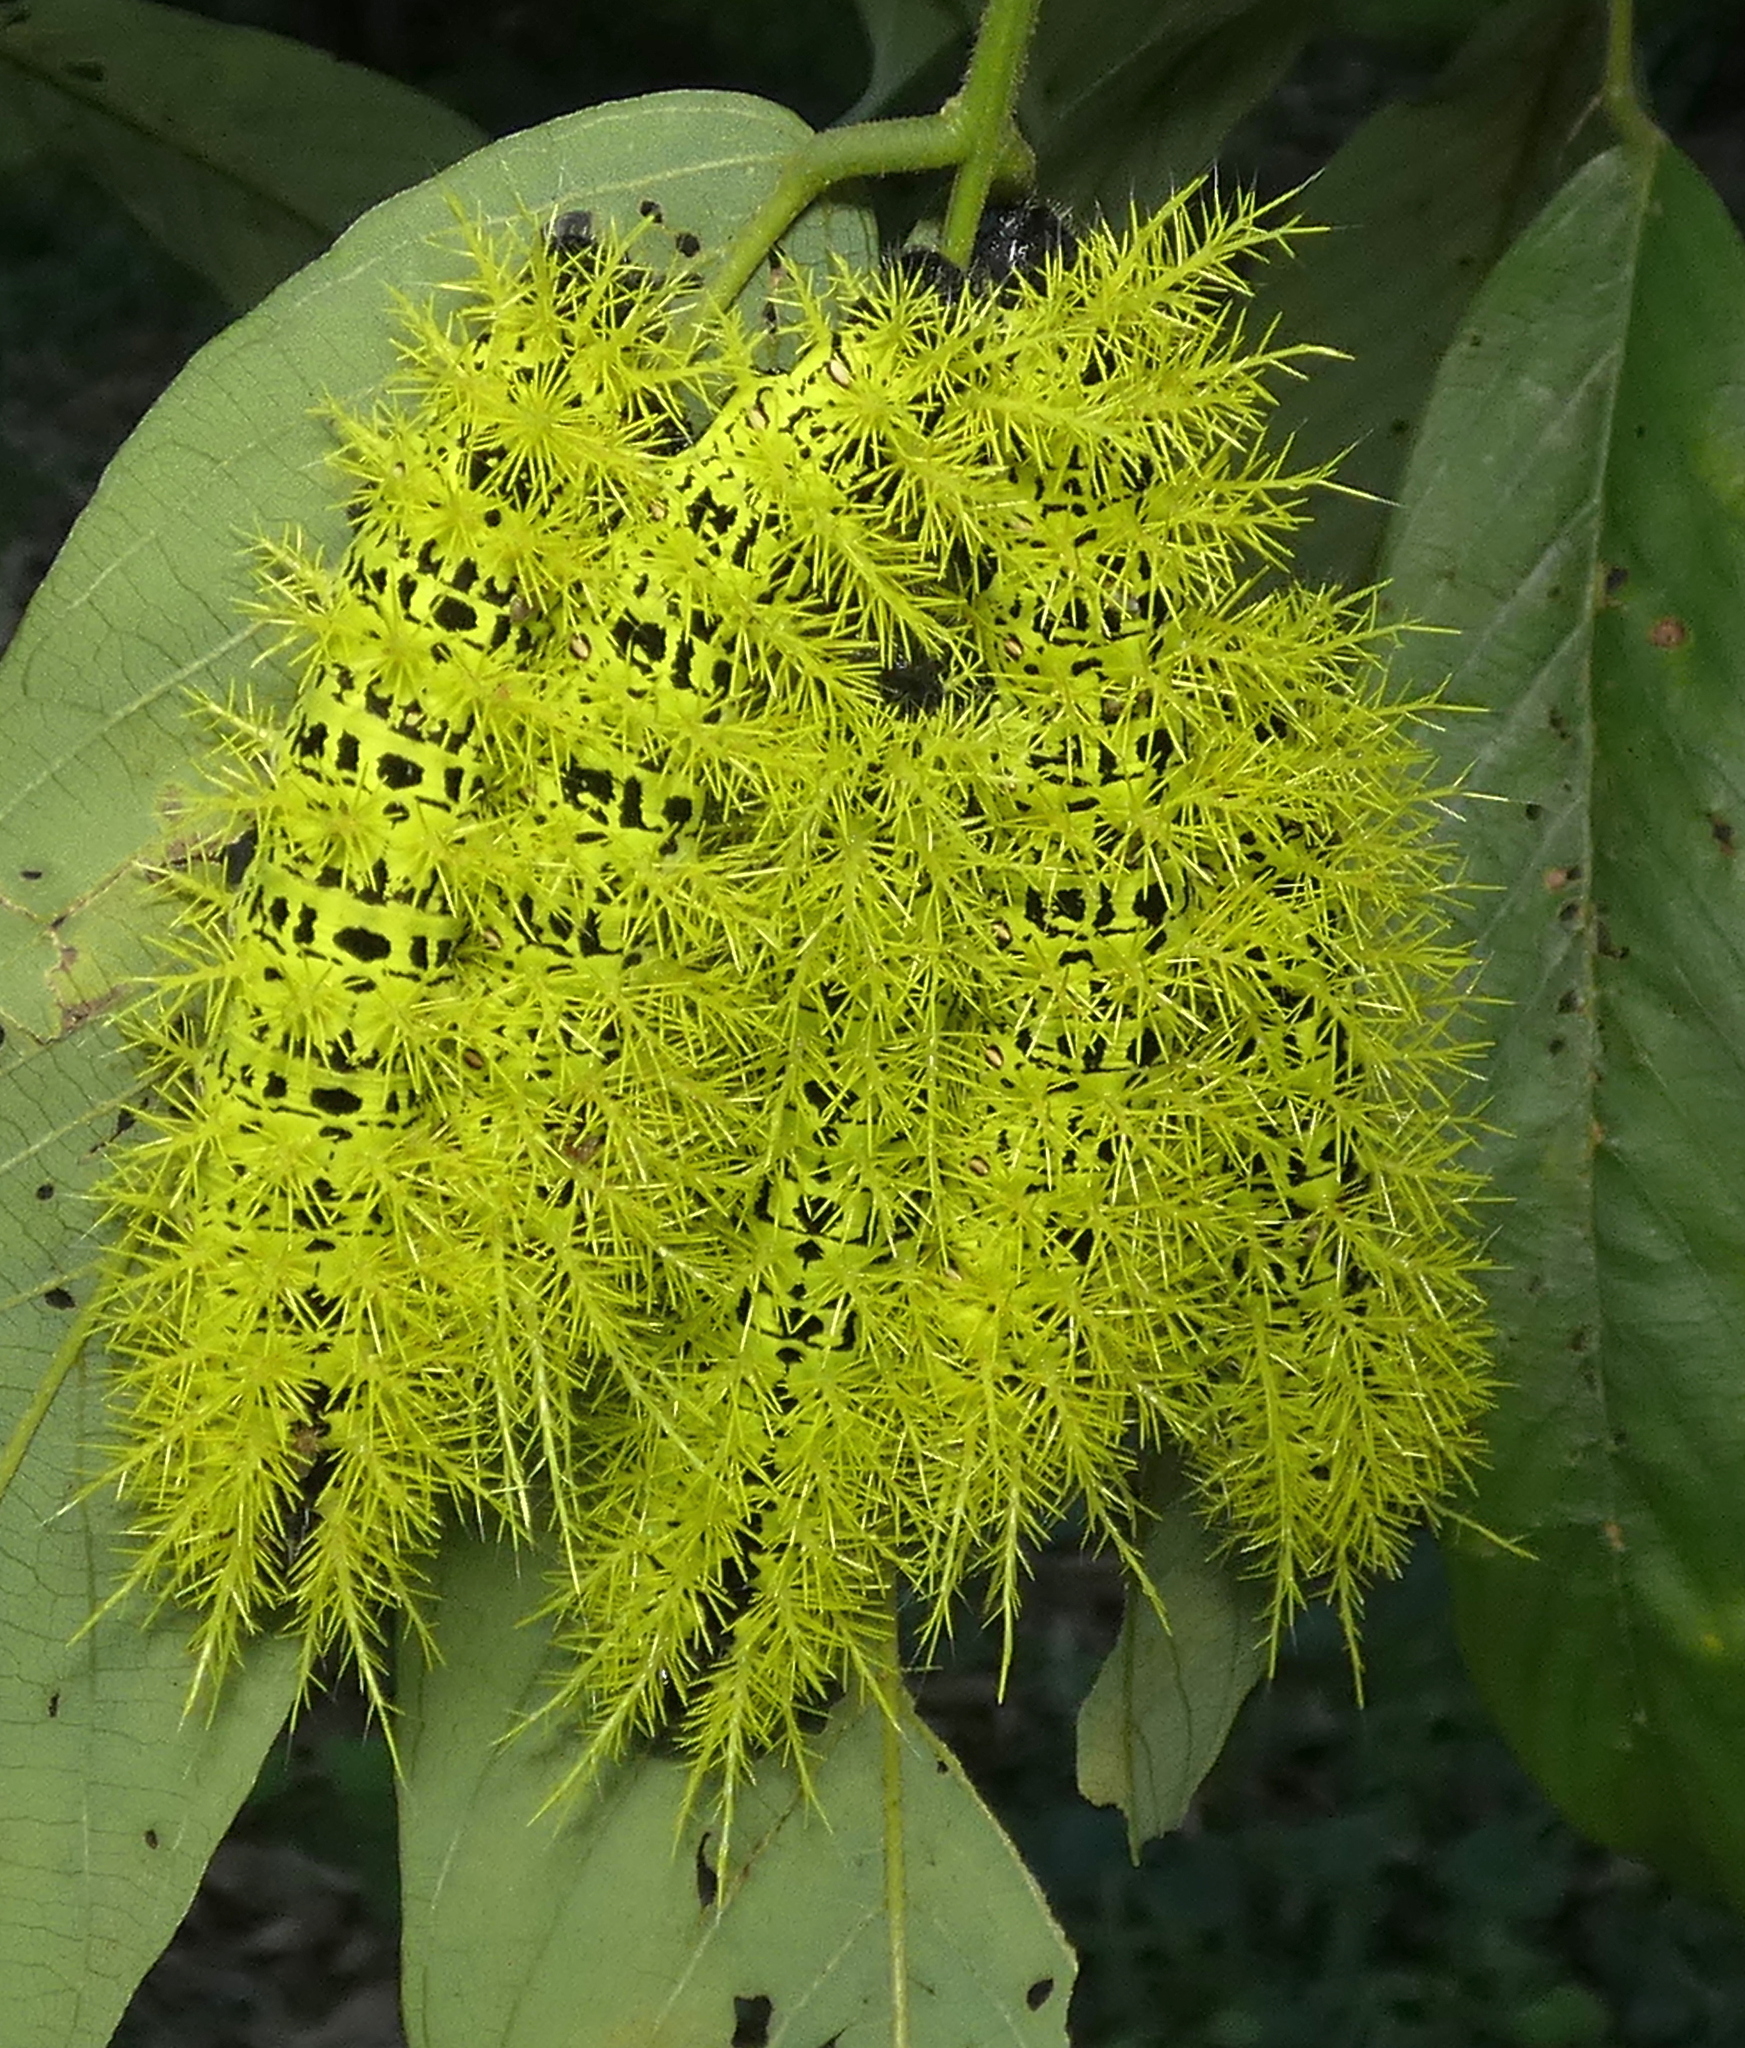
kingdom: Animalia
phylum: Arthropoda
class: Insecta
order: Lepidoptera
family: Saturniidae
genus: Molippa
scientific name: Molippa simillima
